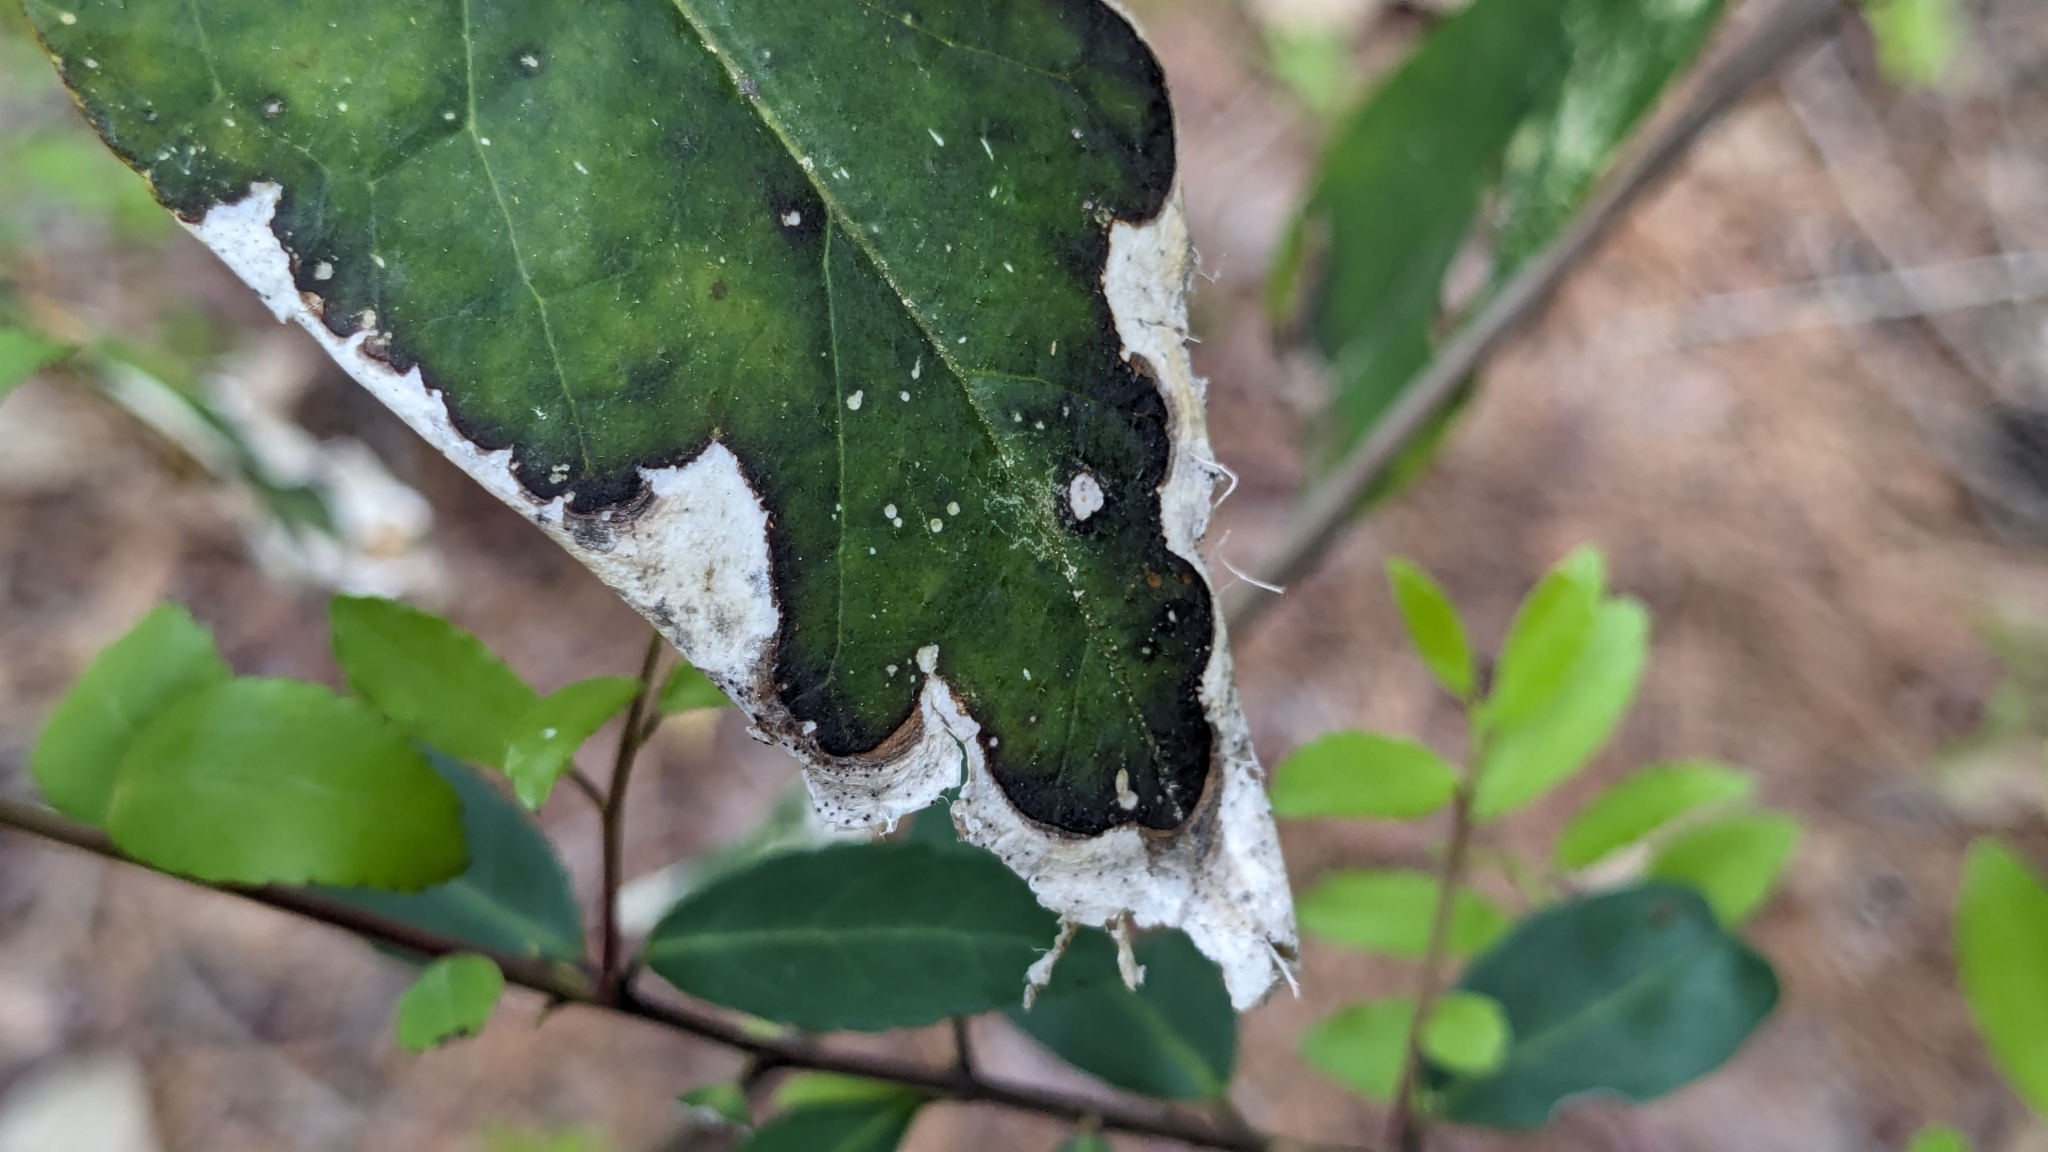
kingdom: Plantae
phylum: Tracheophyta
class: Magnoliopsida
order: Ericales
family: Symplocaceae
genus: Symplocos
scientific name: Symplocos tinctoria
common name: Horse-sugar
